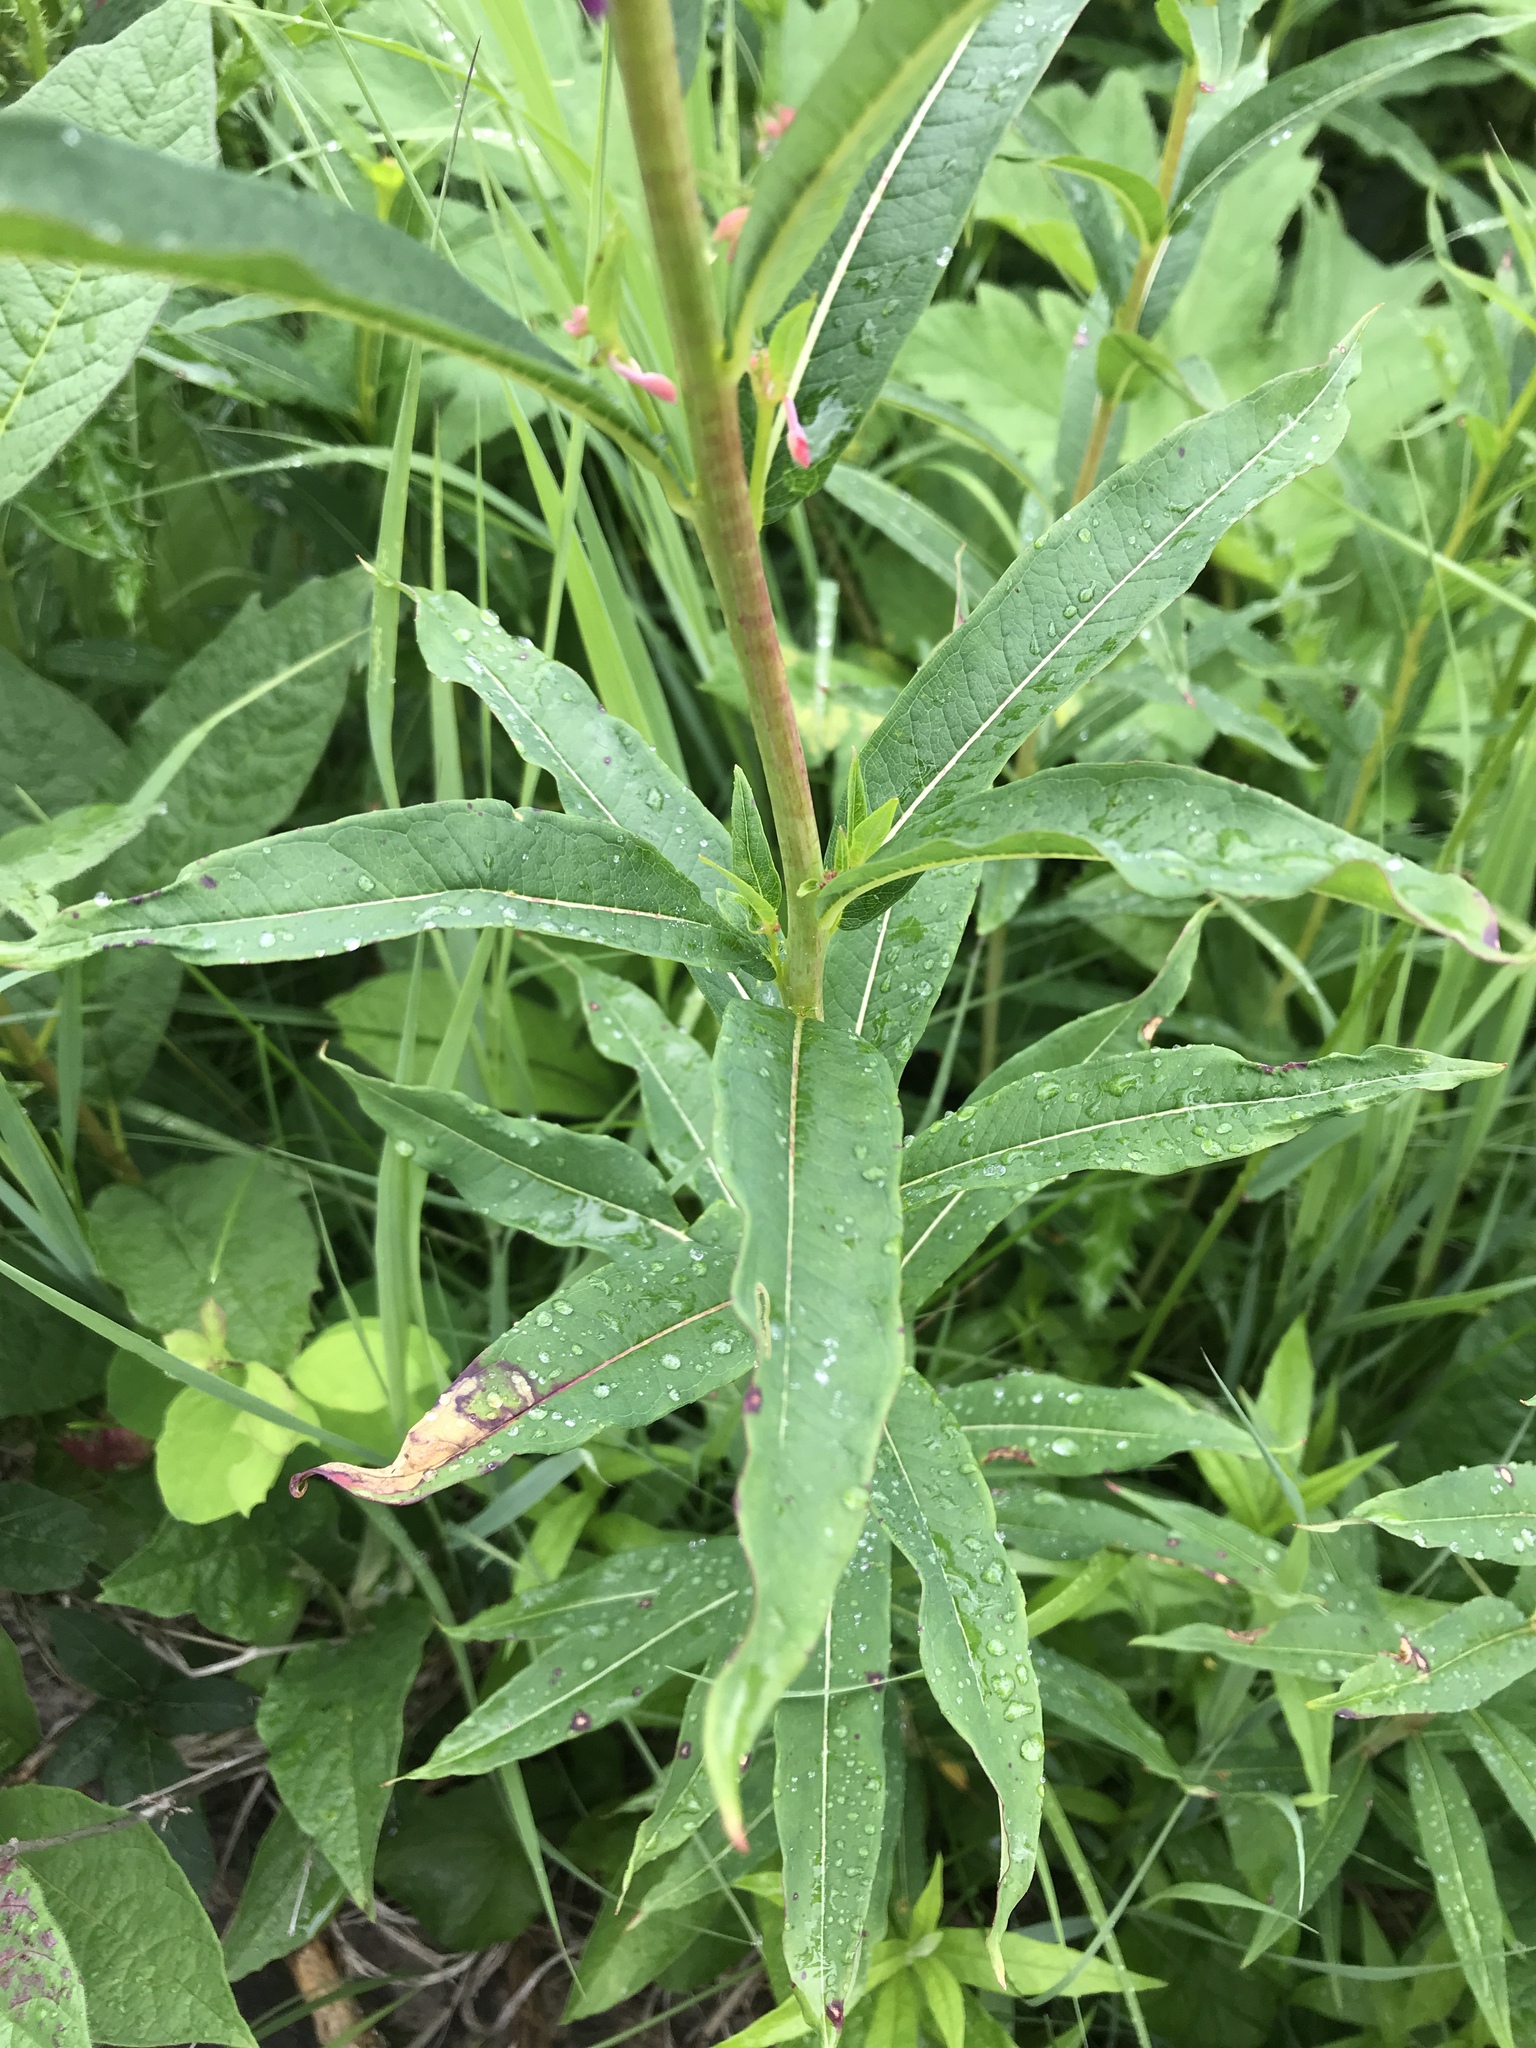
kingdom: Plantae
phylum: Tracheophyta
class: Magnoliopsida
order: Myrtales
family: Onagraceae
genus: Chamaenerion
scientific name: Chamaenerion angustifolium
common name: Fireweed
